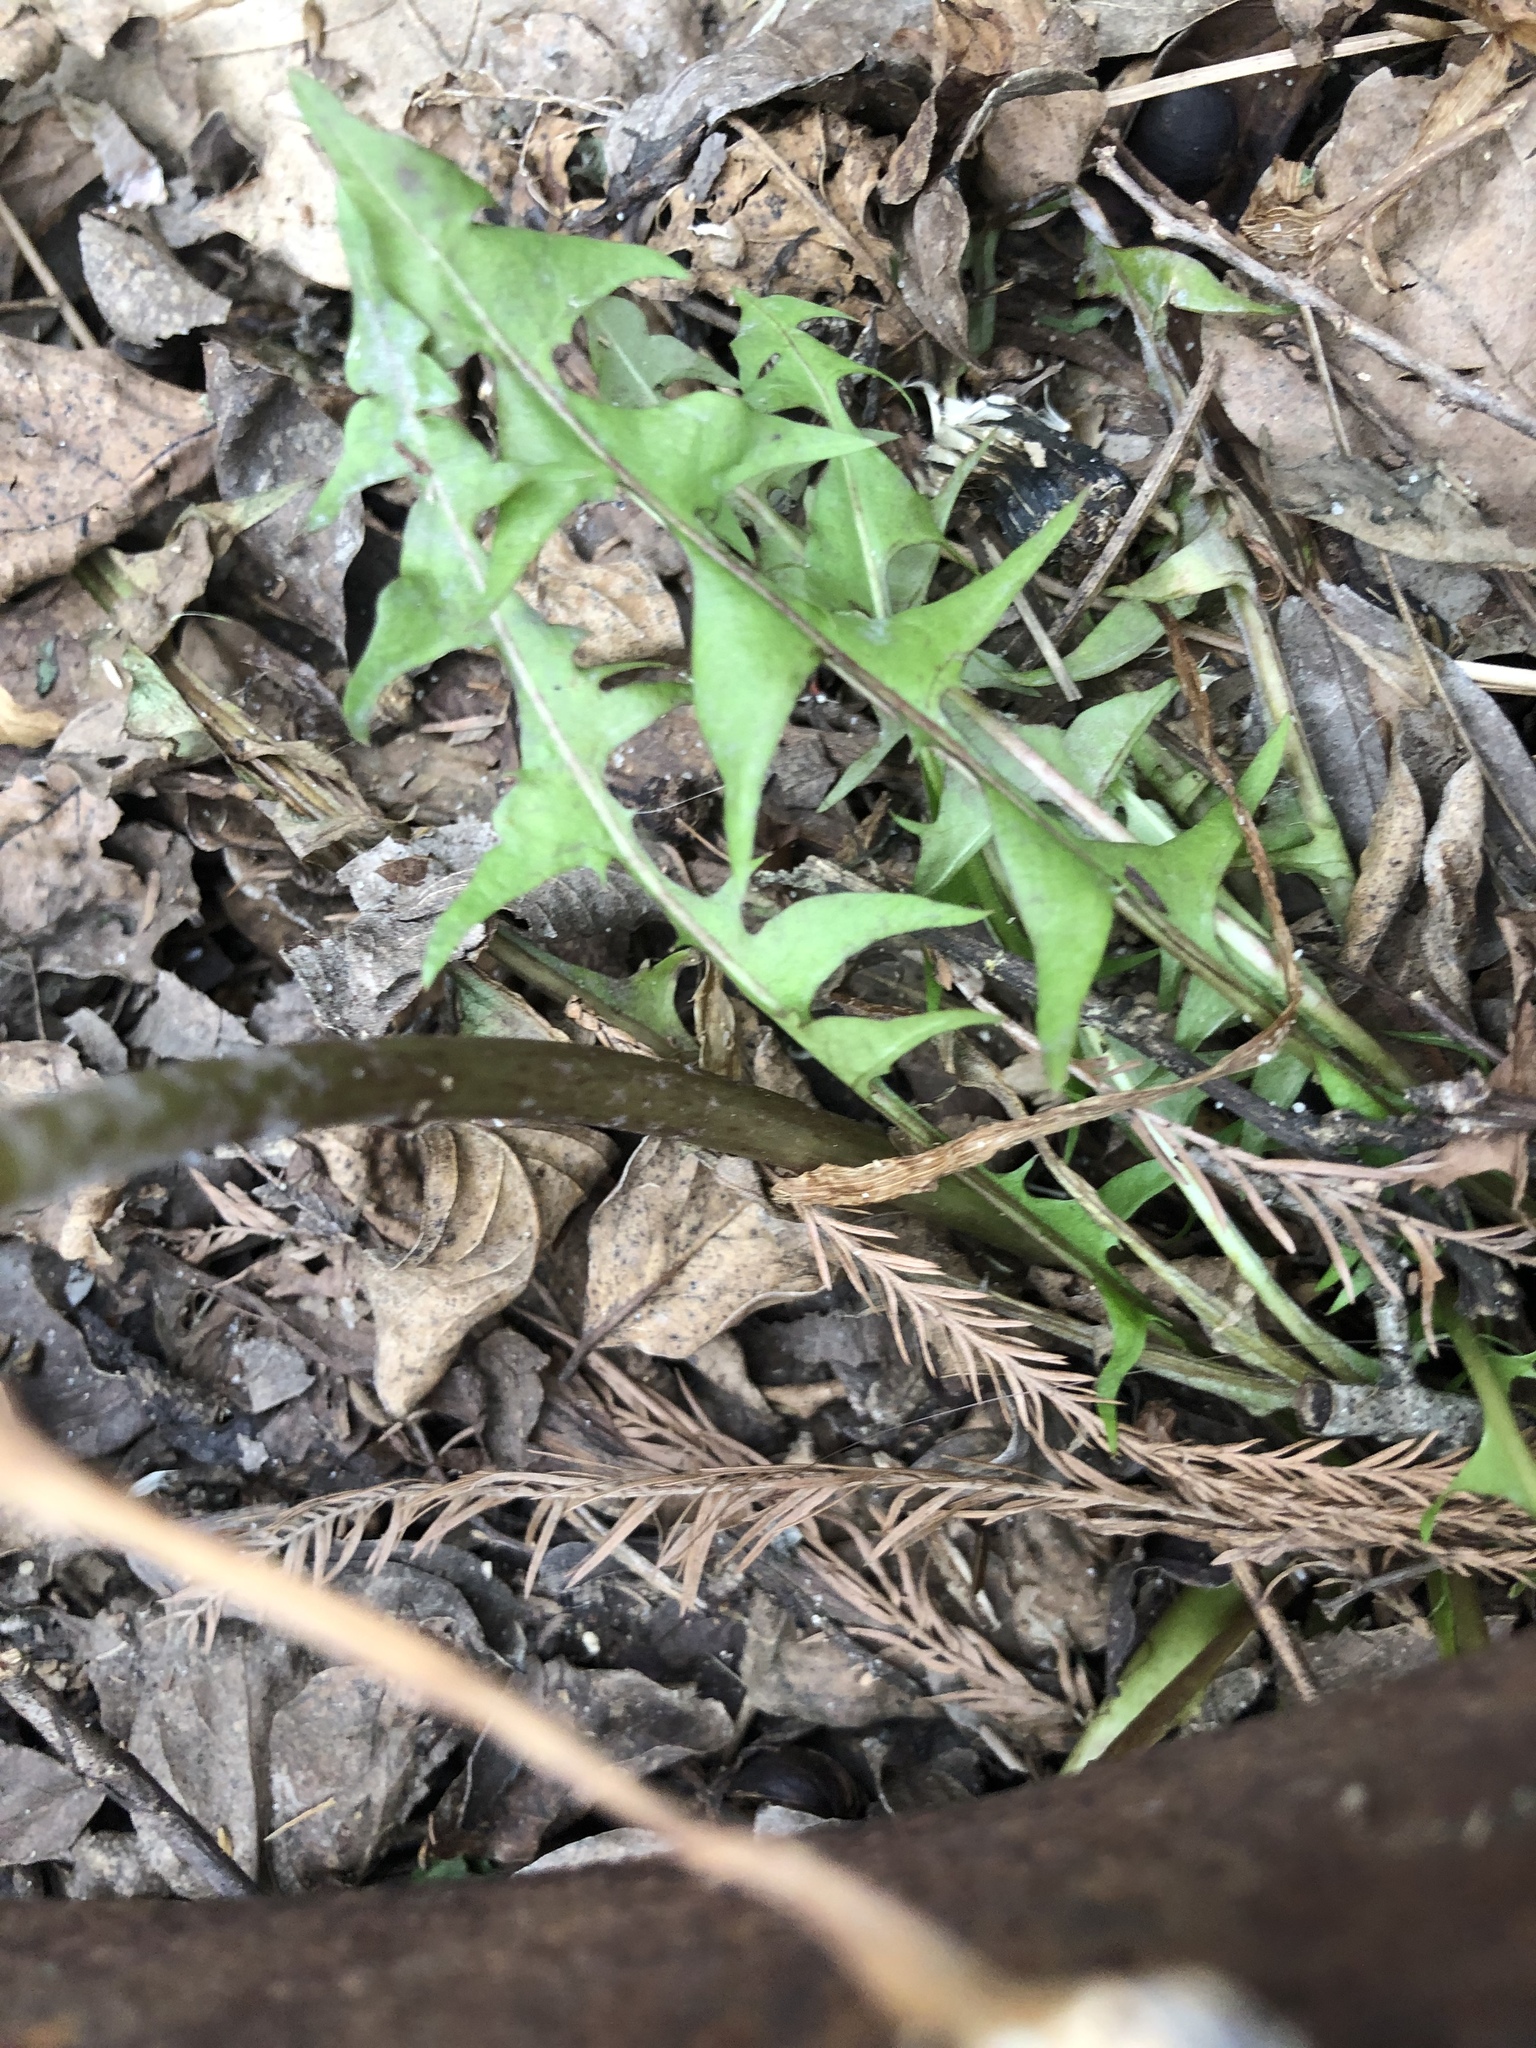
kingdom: Plantae
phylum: Tracheophyta
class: Magnoliopsida
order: Asterales
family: Asteraceae
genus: Taraxacum
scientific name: Taraxacum erythrospermum
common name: Rock dandelion
